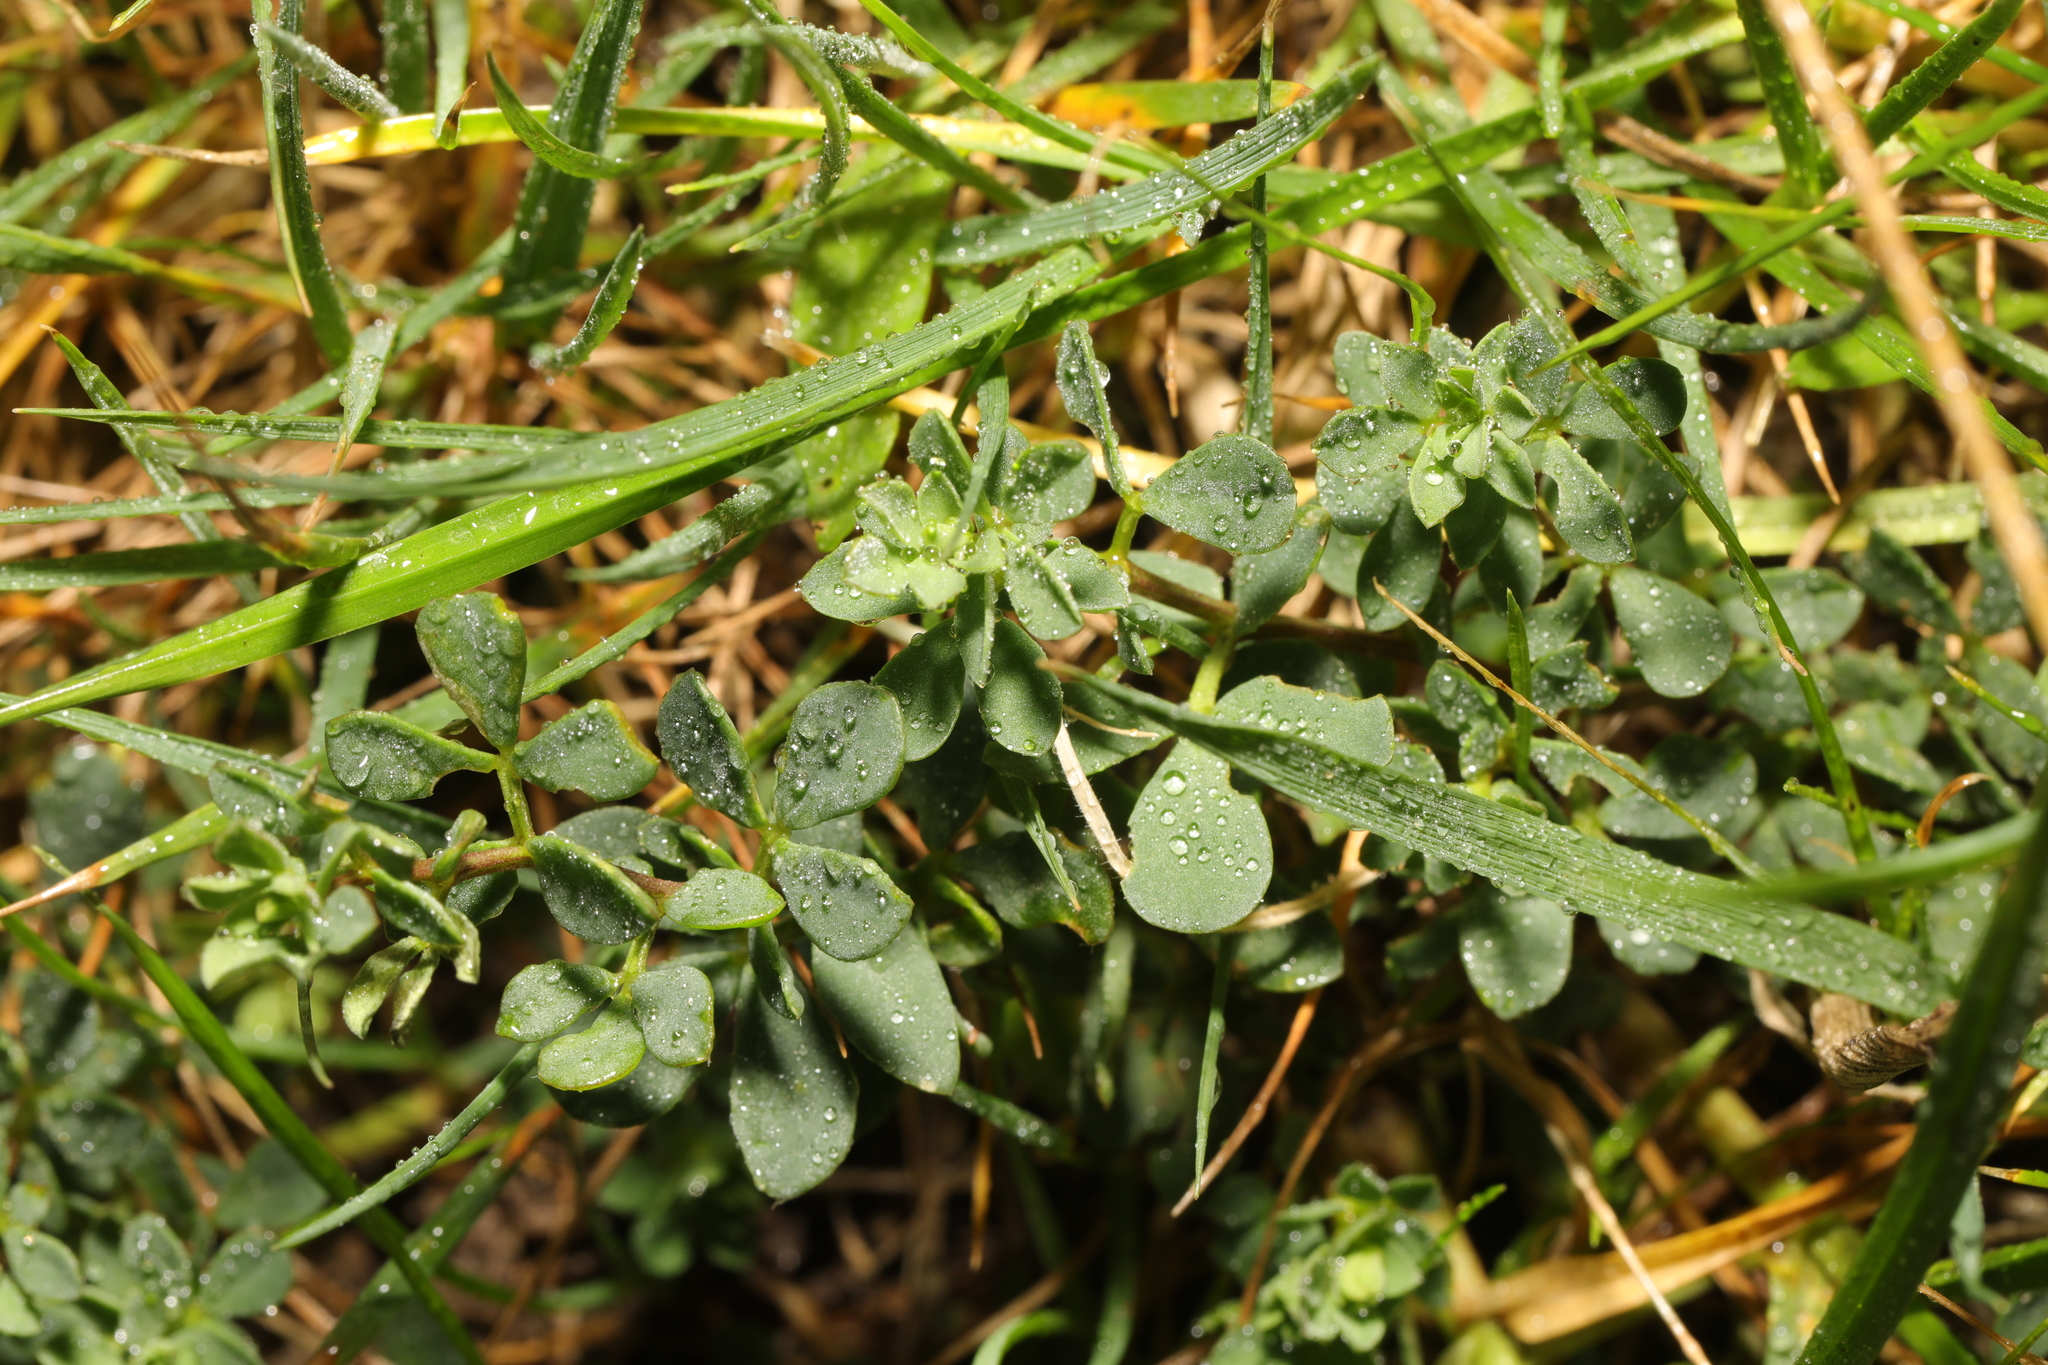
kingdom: Plantae
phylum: Tracheophyta
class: Magnoliopsida
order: Fabales
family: Fabaceae
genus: Lotus
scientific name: Lotus corniculatus
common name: Common bird's-foot-trefoil
